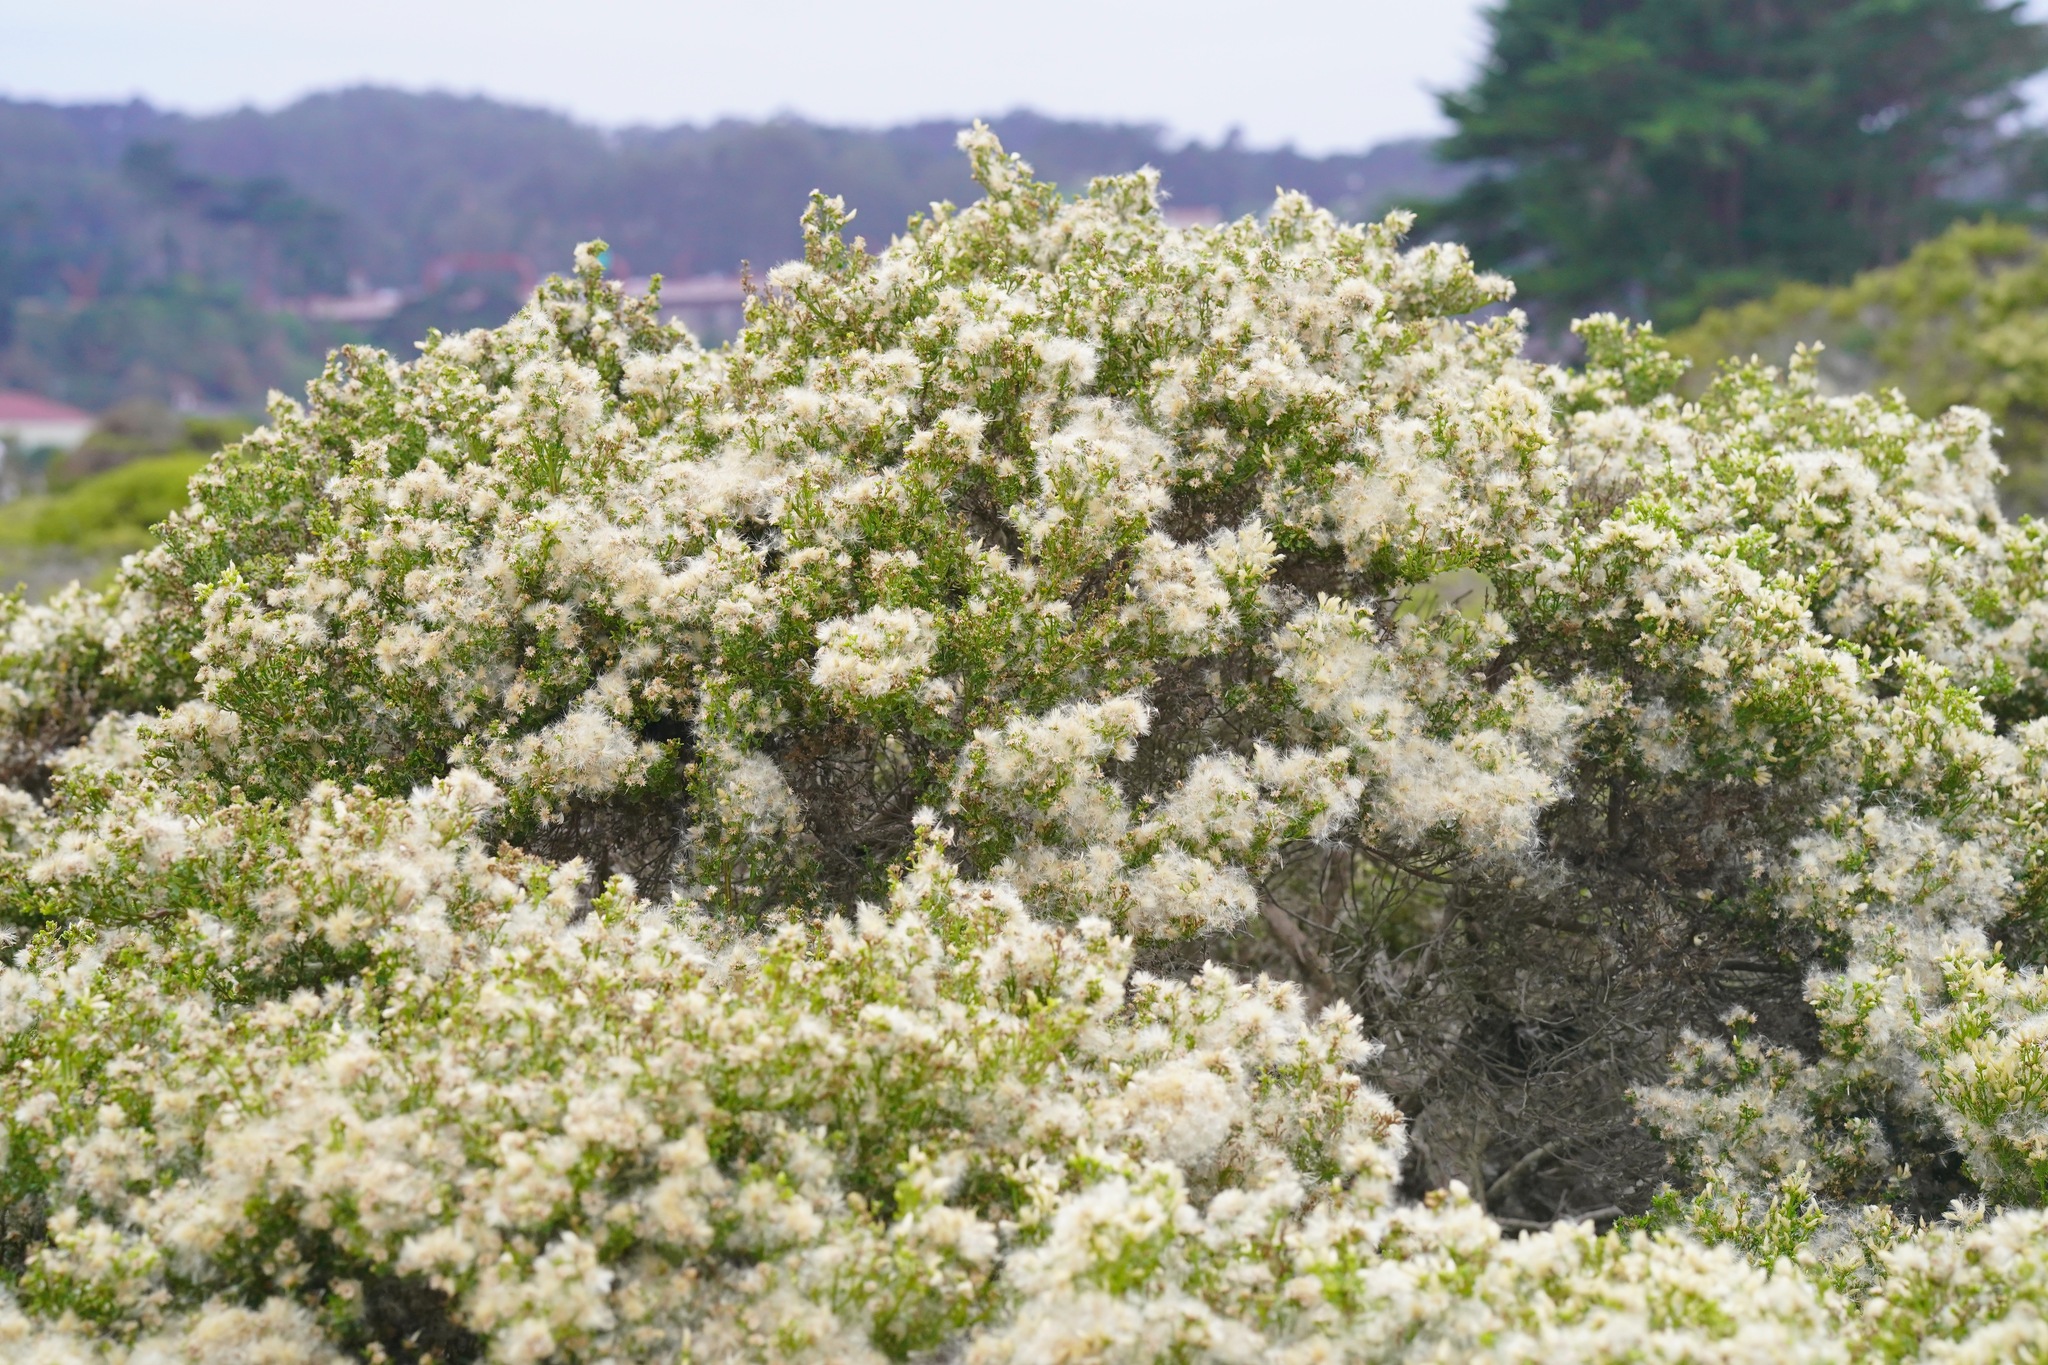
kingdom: Plantae
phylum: Tracheophyta
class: Magnoliopsida
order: Asterales
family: Asteraceae
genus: Baccharis
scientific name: Baccharis pilularis
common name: Coyotebrush
